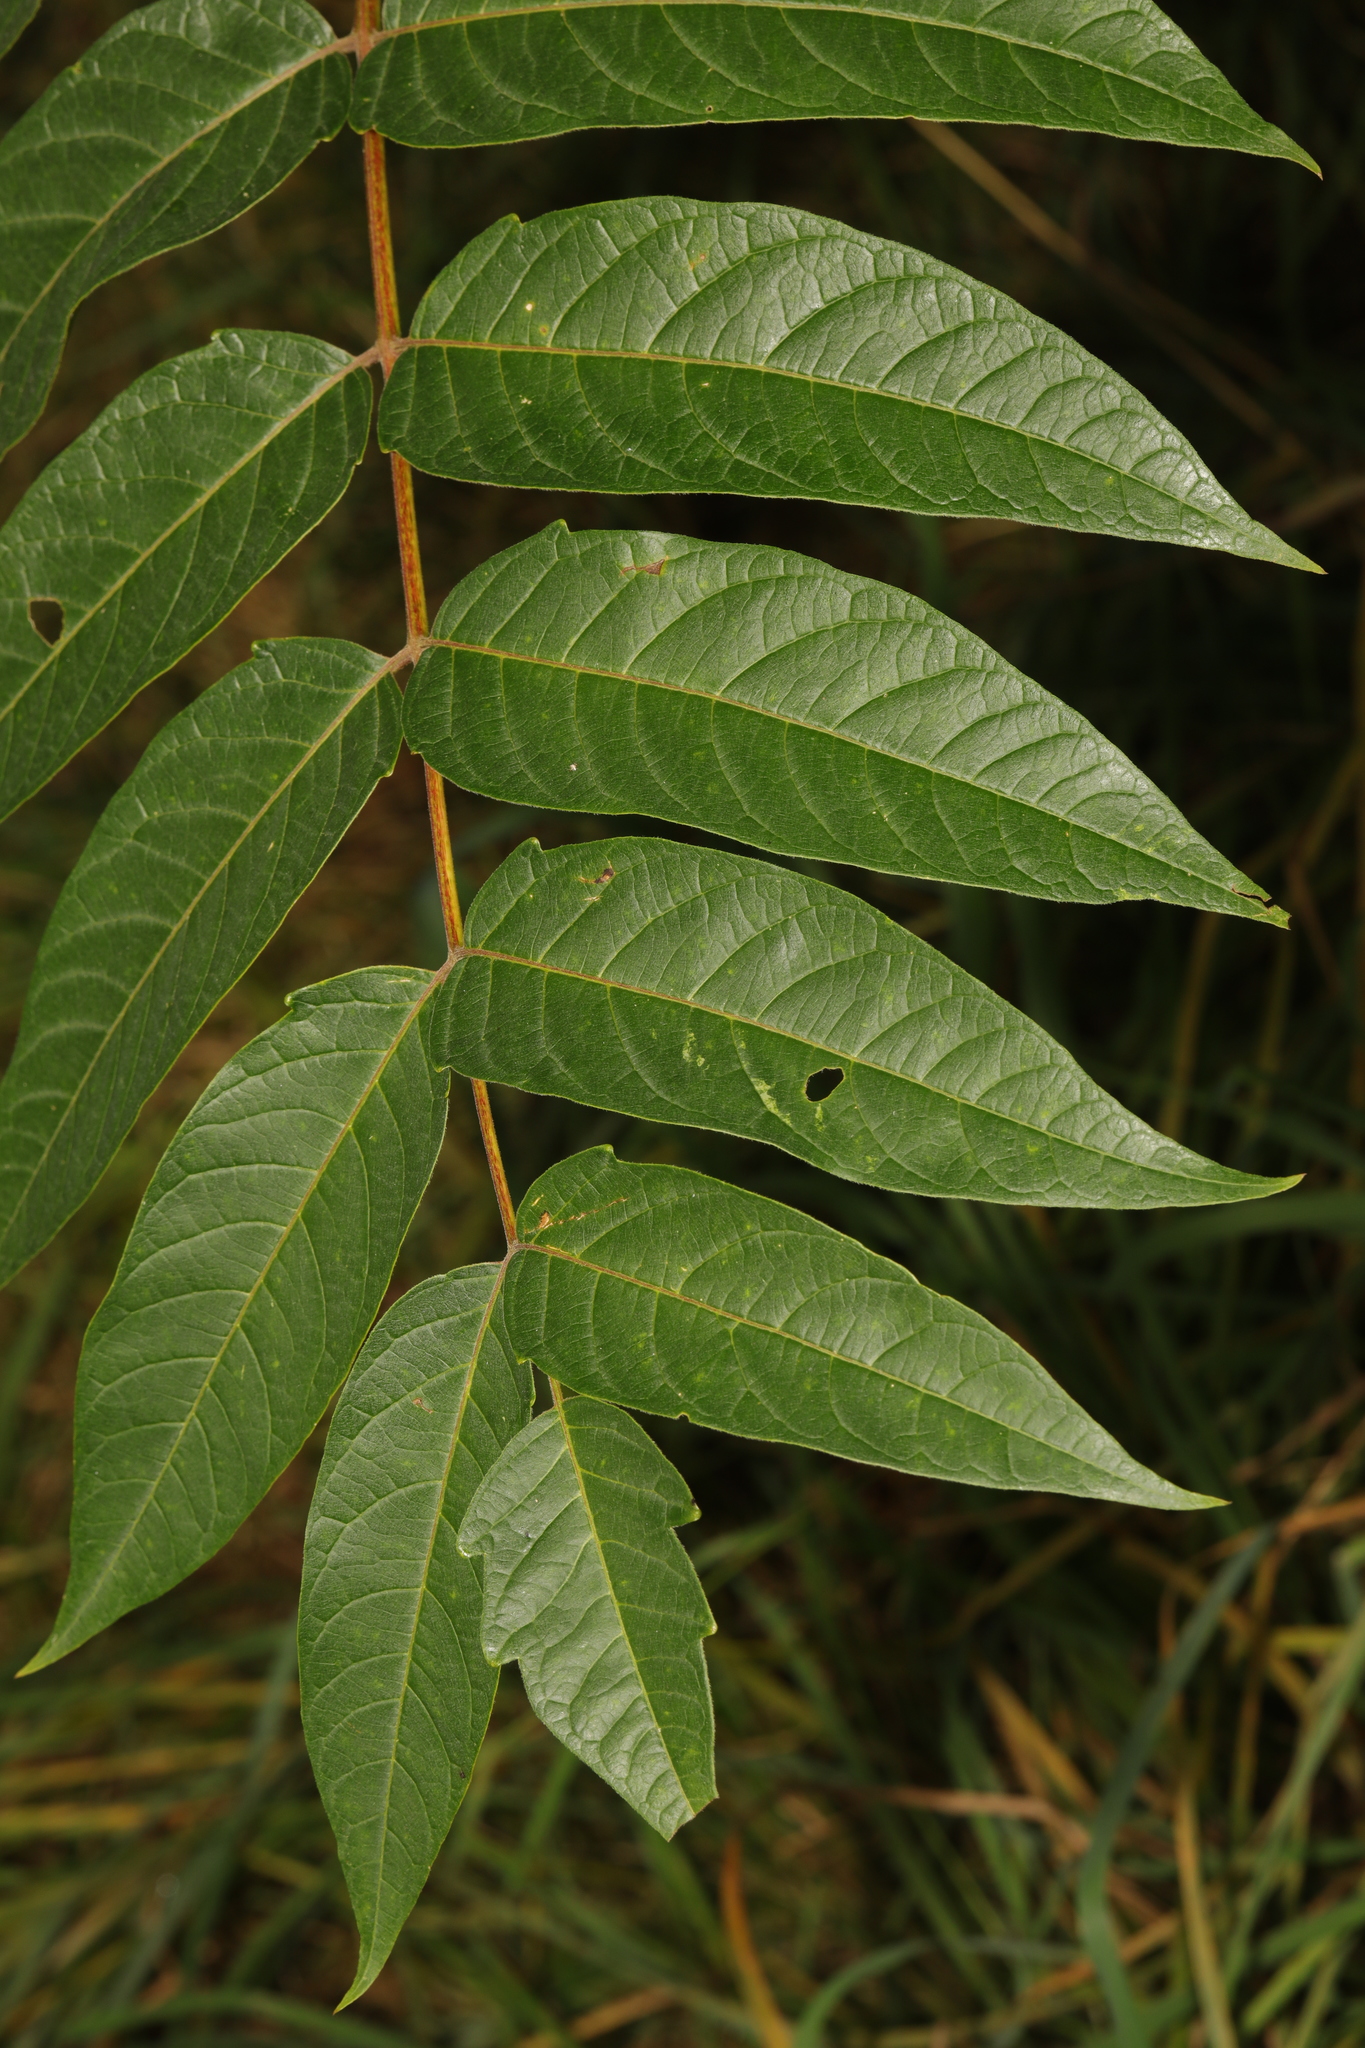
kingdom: Plantae
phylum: Tracheophyta
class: Magnoliopsida
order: Sapindales
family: Simaroubaceae
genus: Ailanthus
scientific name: Ailanthus altissima
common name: Tree-of-heaven
